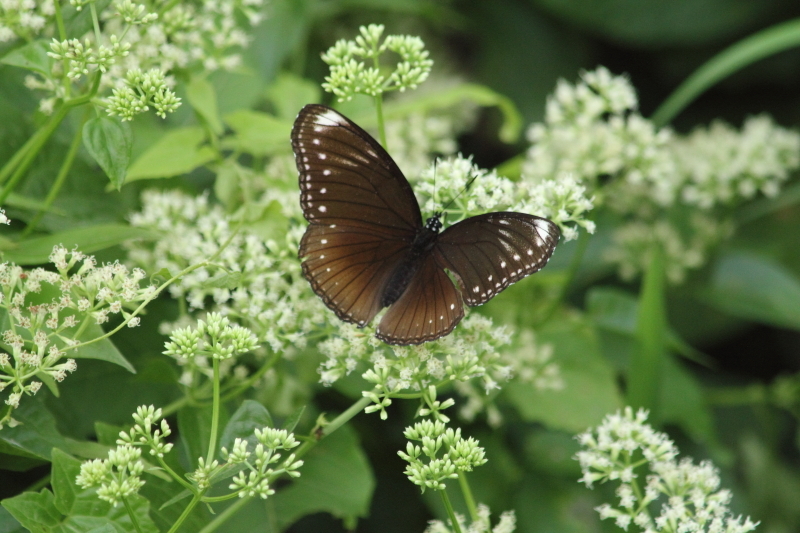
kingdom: Animalia
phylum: Arthropoda
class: Insecta
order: Lepidoptera
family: Nymphalidae
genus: Hypolimnas
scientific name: Hypolimnas anomala
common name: Malayan eggfly
